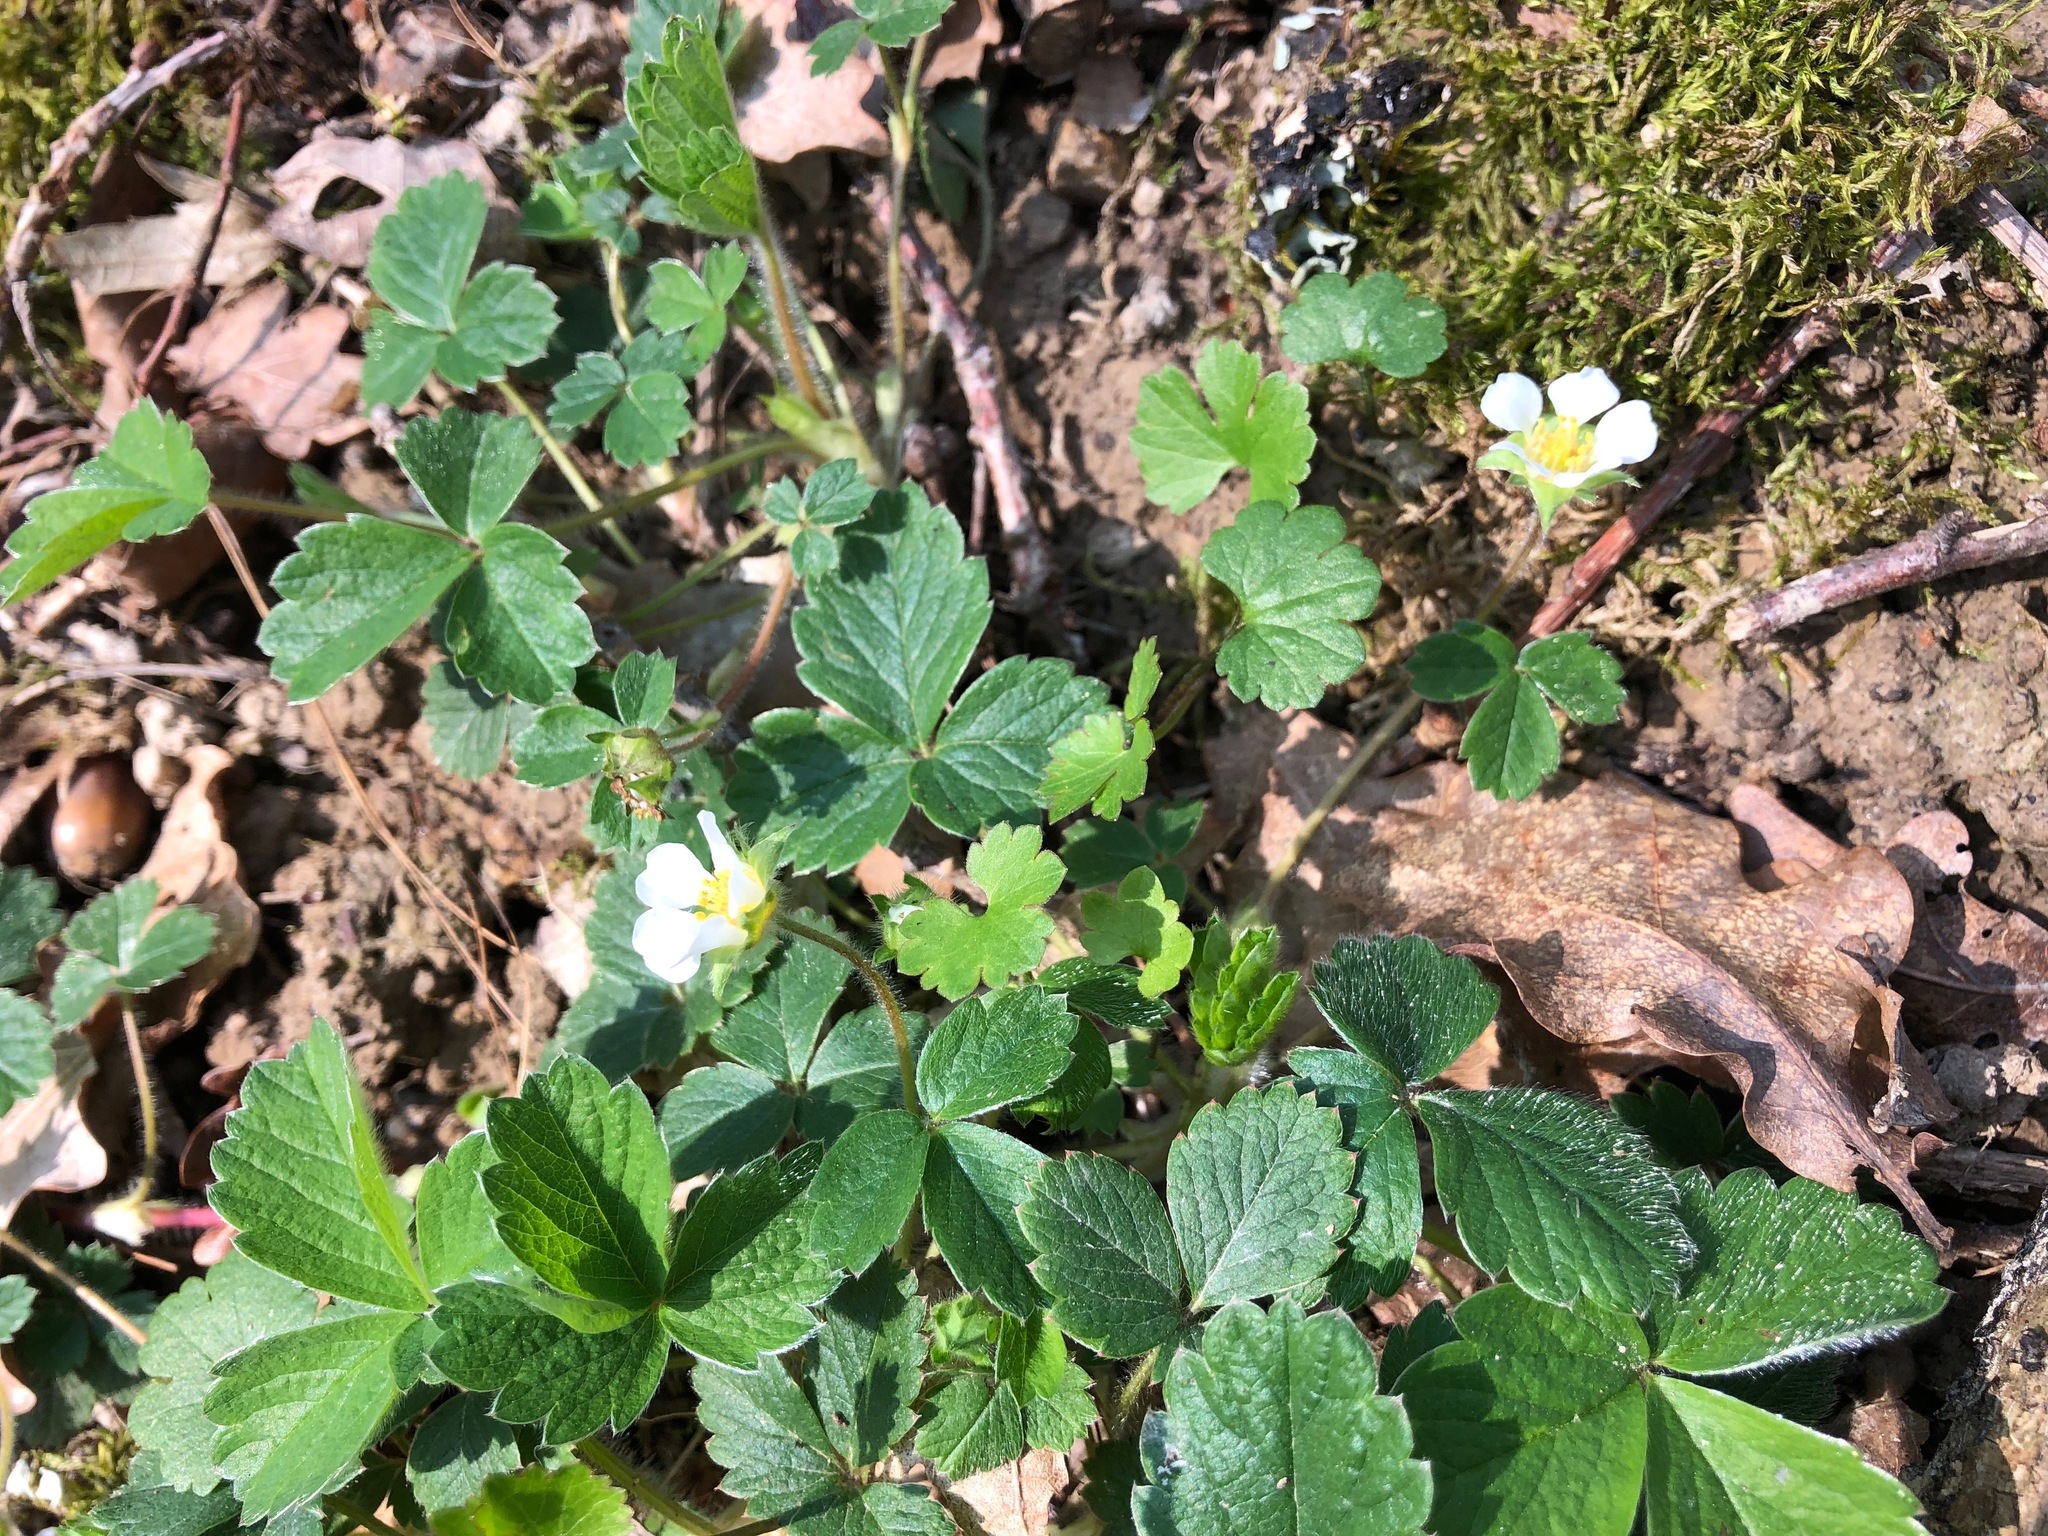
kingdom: Plantae
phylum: Tracheophyta
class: Magnoliopsida
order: Rosales
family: Rosaceae
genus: Potentilla
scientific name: Potentilla sterilis
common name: Barren strawberry
